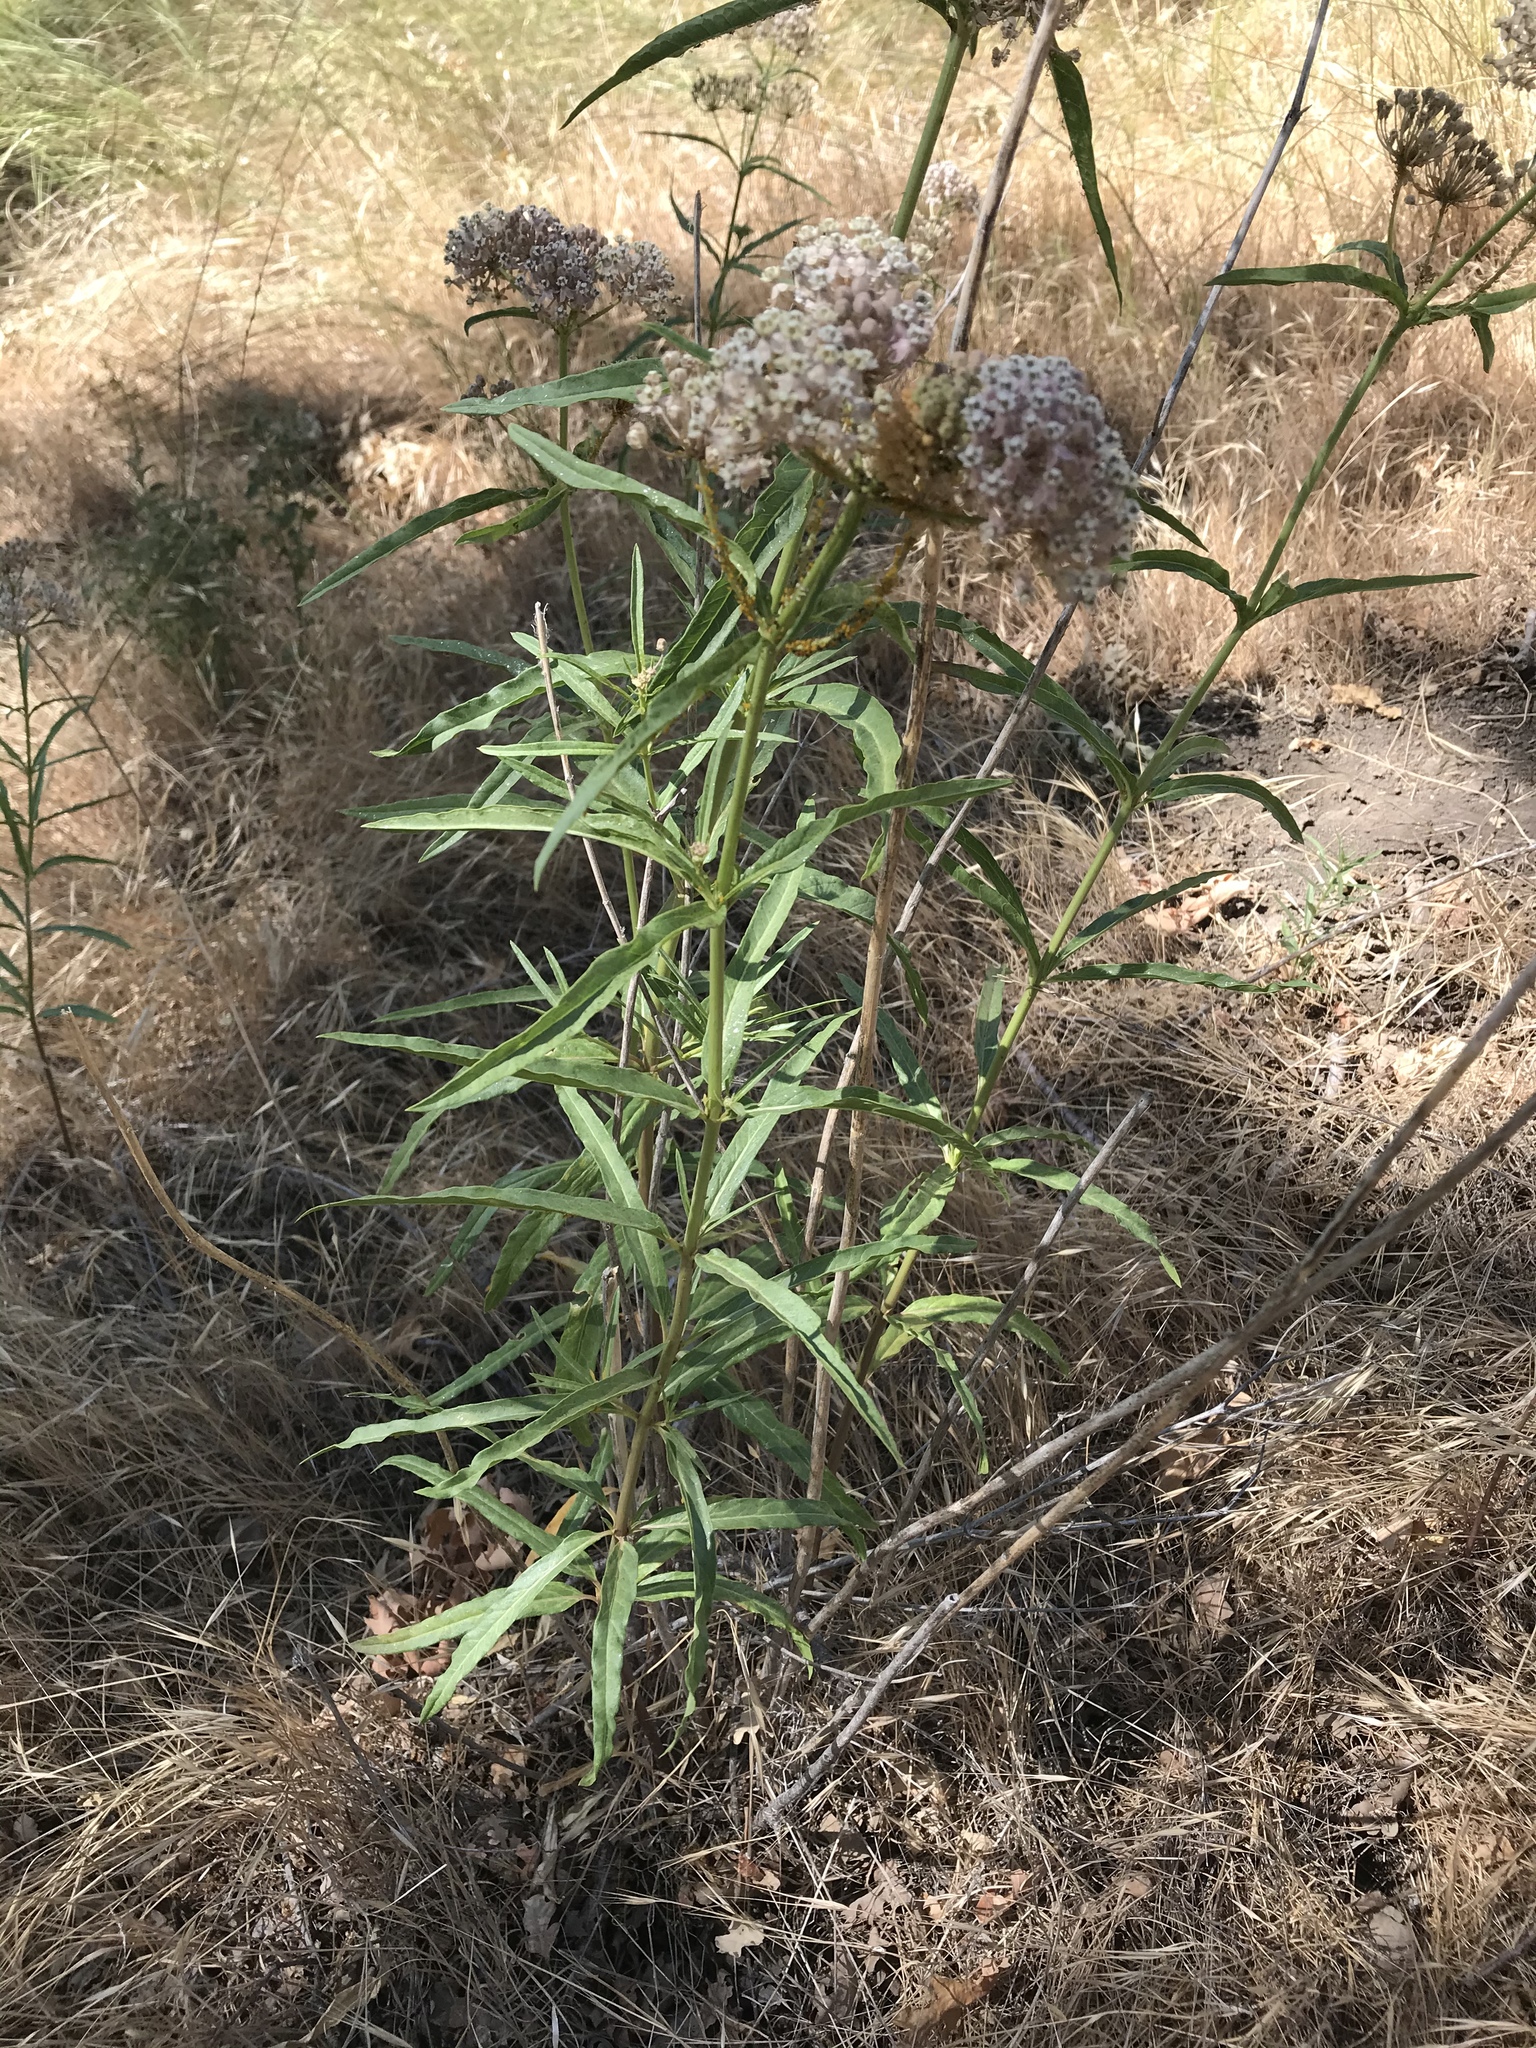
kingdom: Plantae
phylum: Tracheophyta
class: Magnoliopsida
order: Gentianales
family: Apocynaceae
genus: Asclepias
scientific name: Asclepias fascicularis
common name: Mexican milkweed
